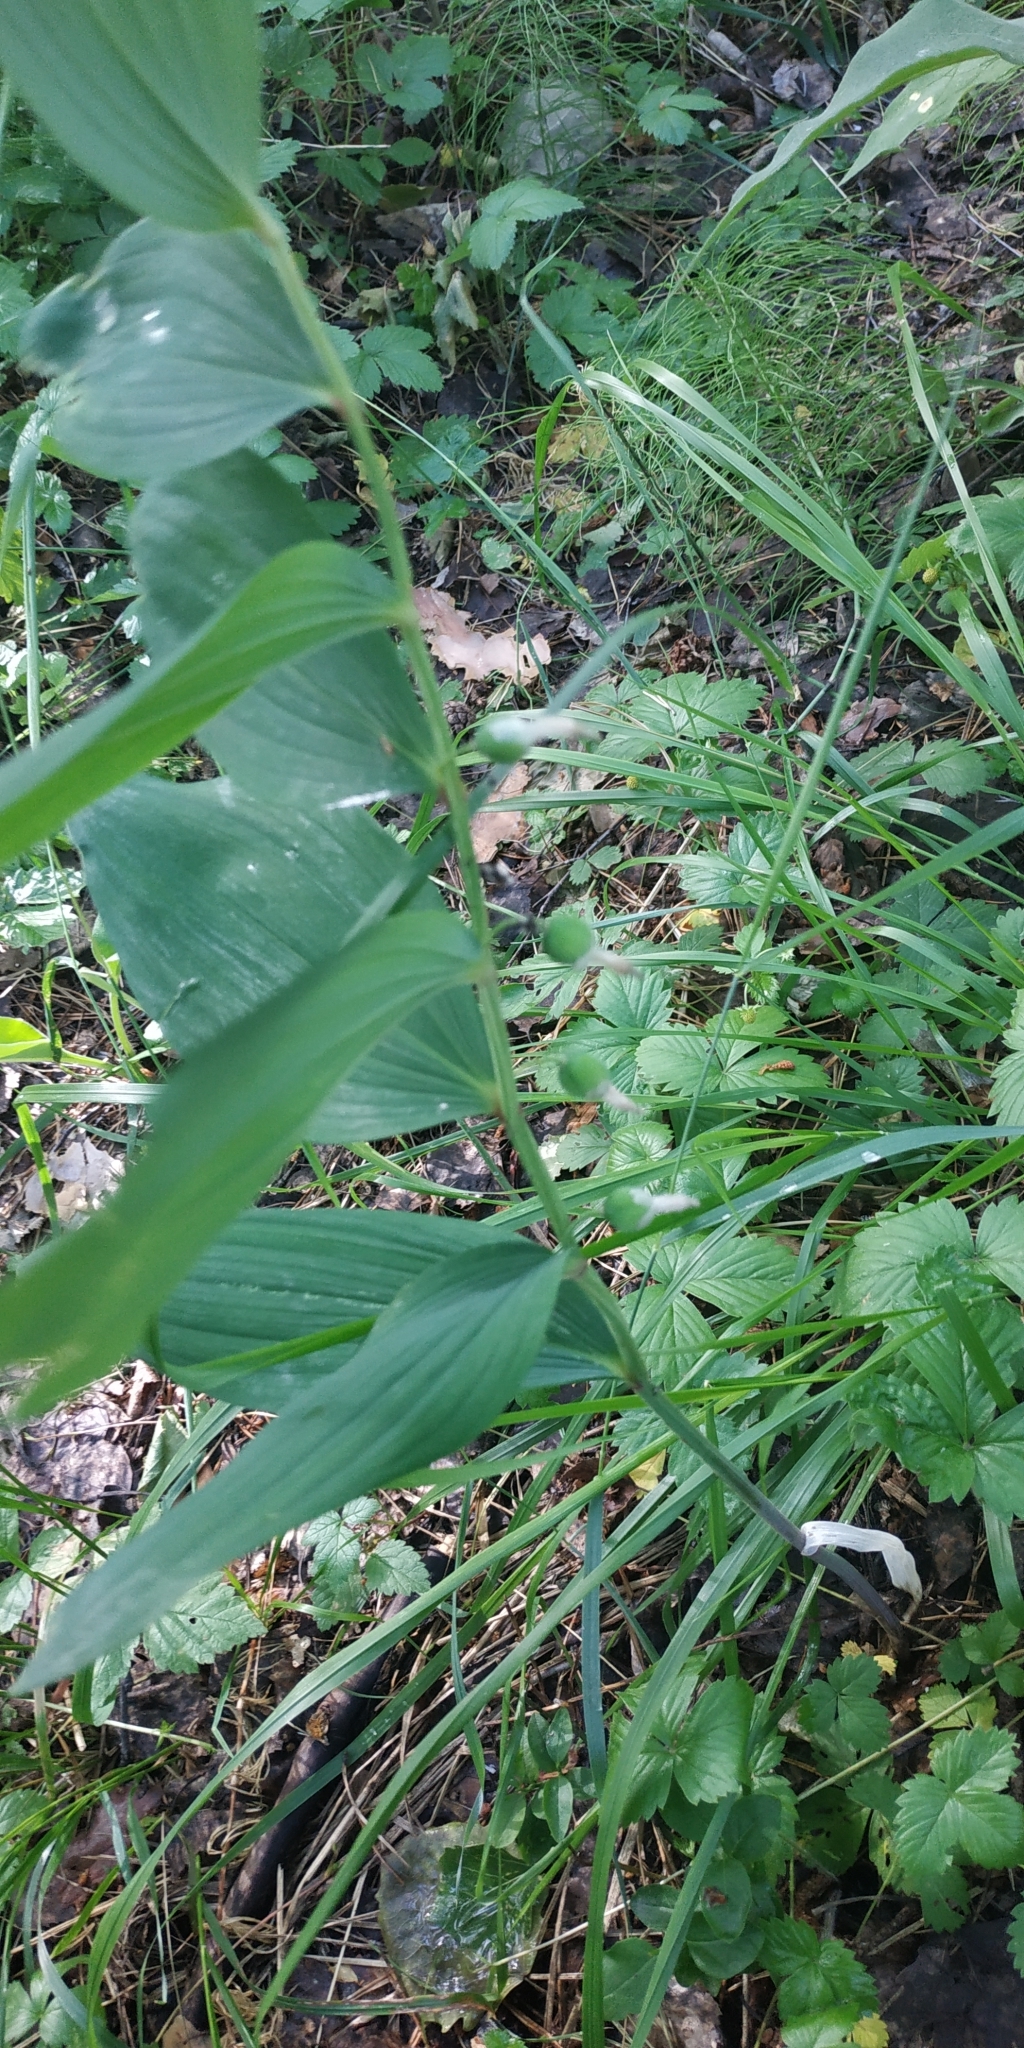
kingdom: Plantae
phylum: Tracheophyta
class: Liliopsida
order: Asparagales
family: Asparagaceae
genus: Polygonatum
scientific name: Polygonatum odoratum
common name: Angular solomon's-seal
